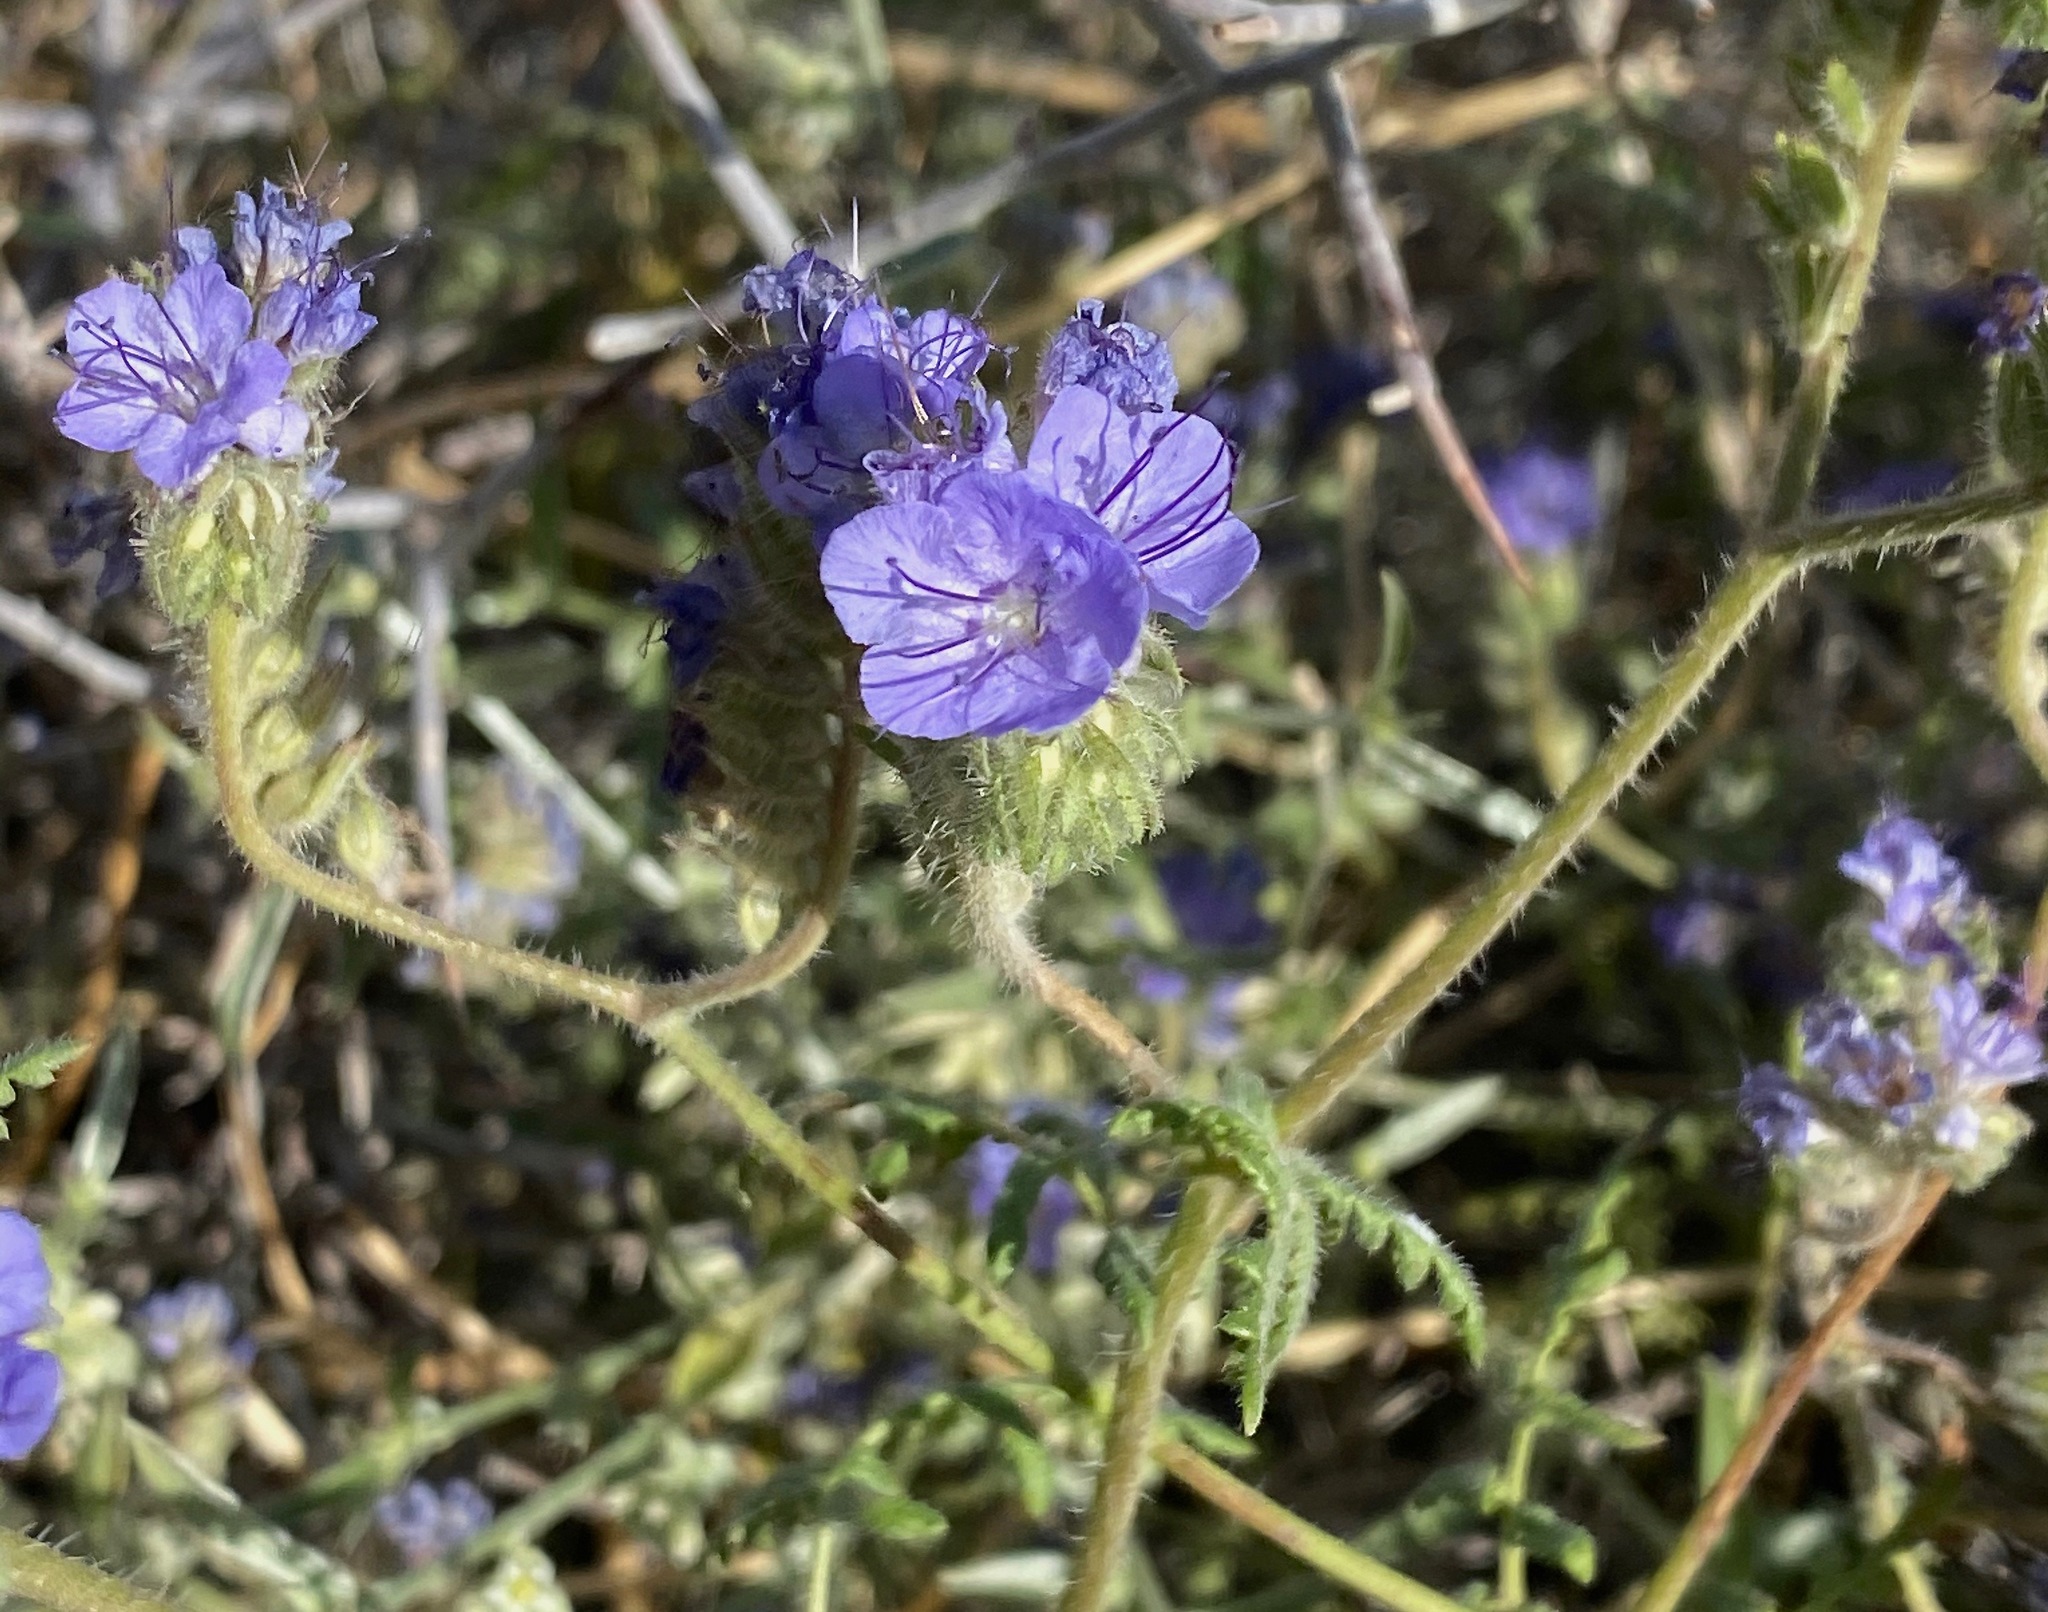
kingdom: Plantae
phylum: Tracheophyta
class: Magnoliopsida
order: Boraginales
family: Hydrophyllaceae
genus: Phacelia
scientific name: Phacelia distans
